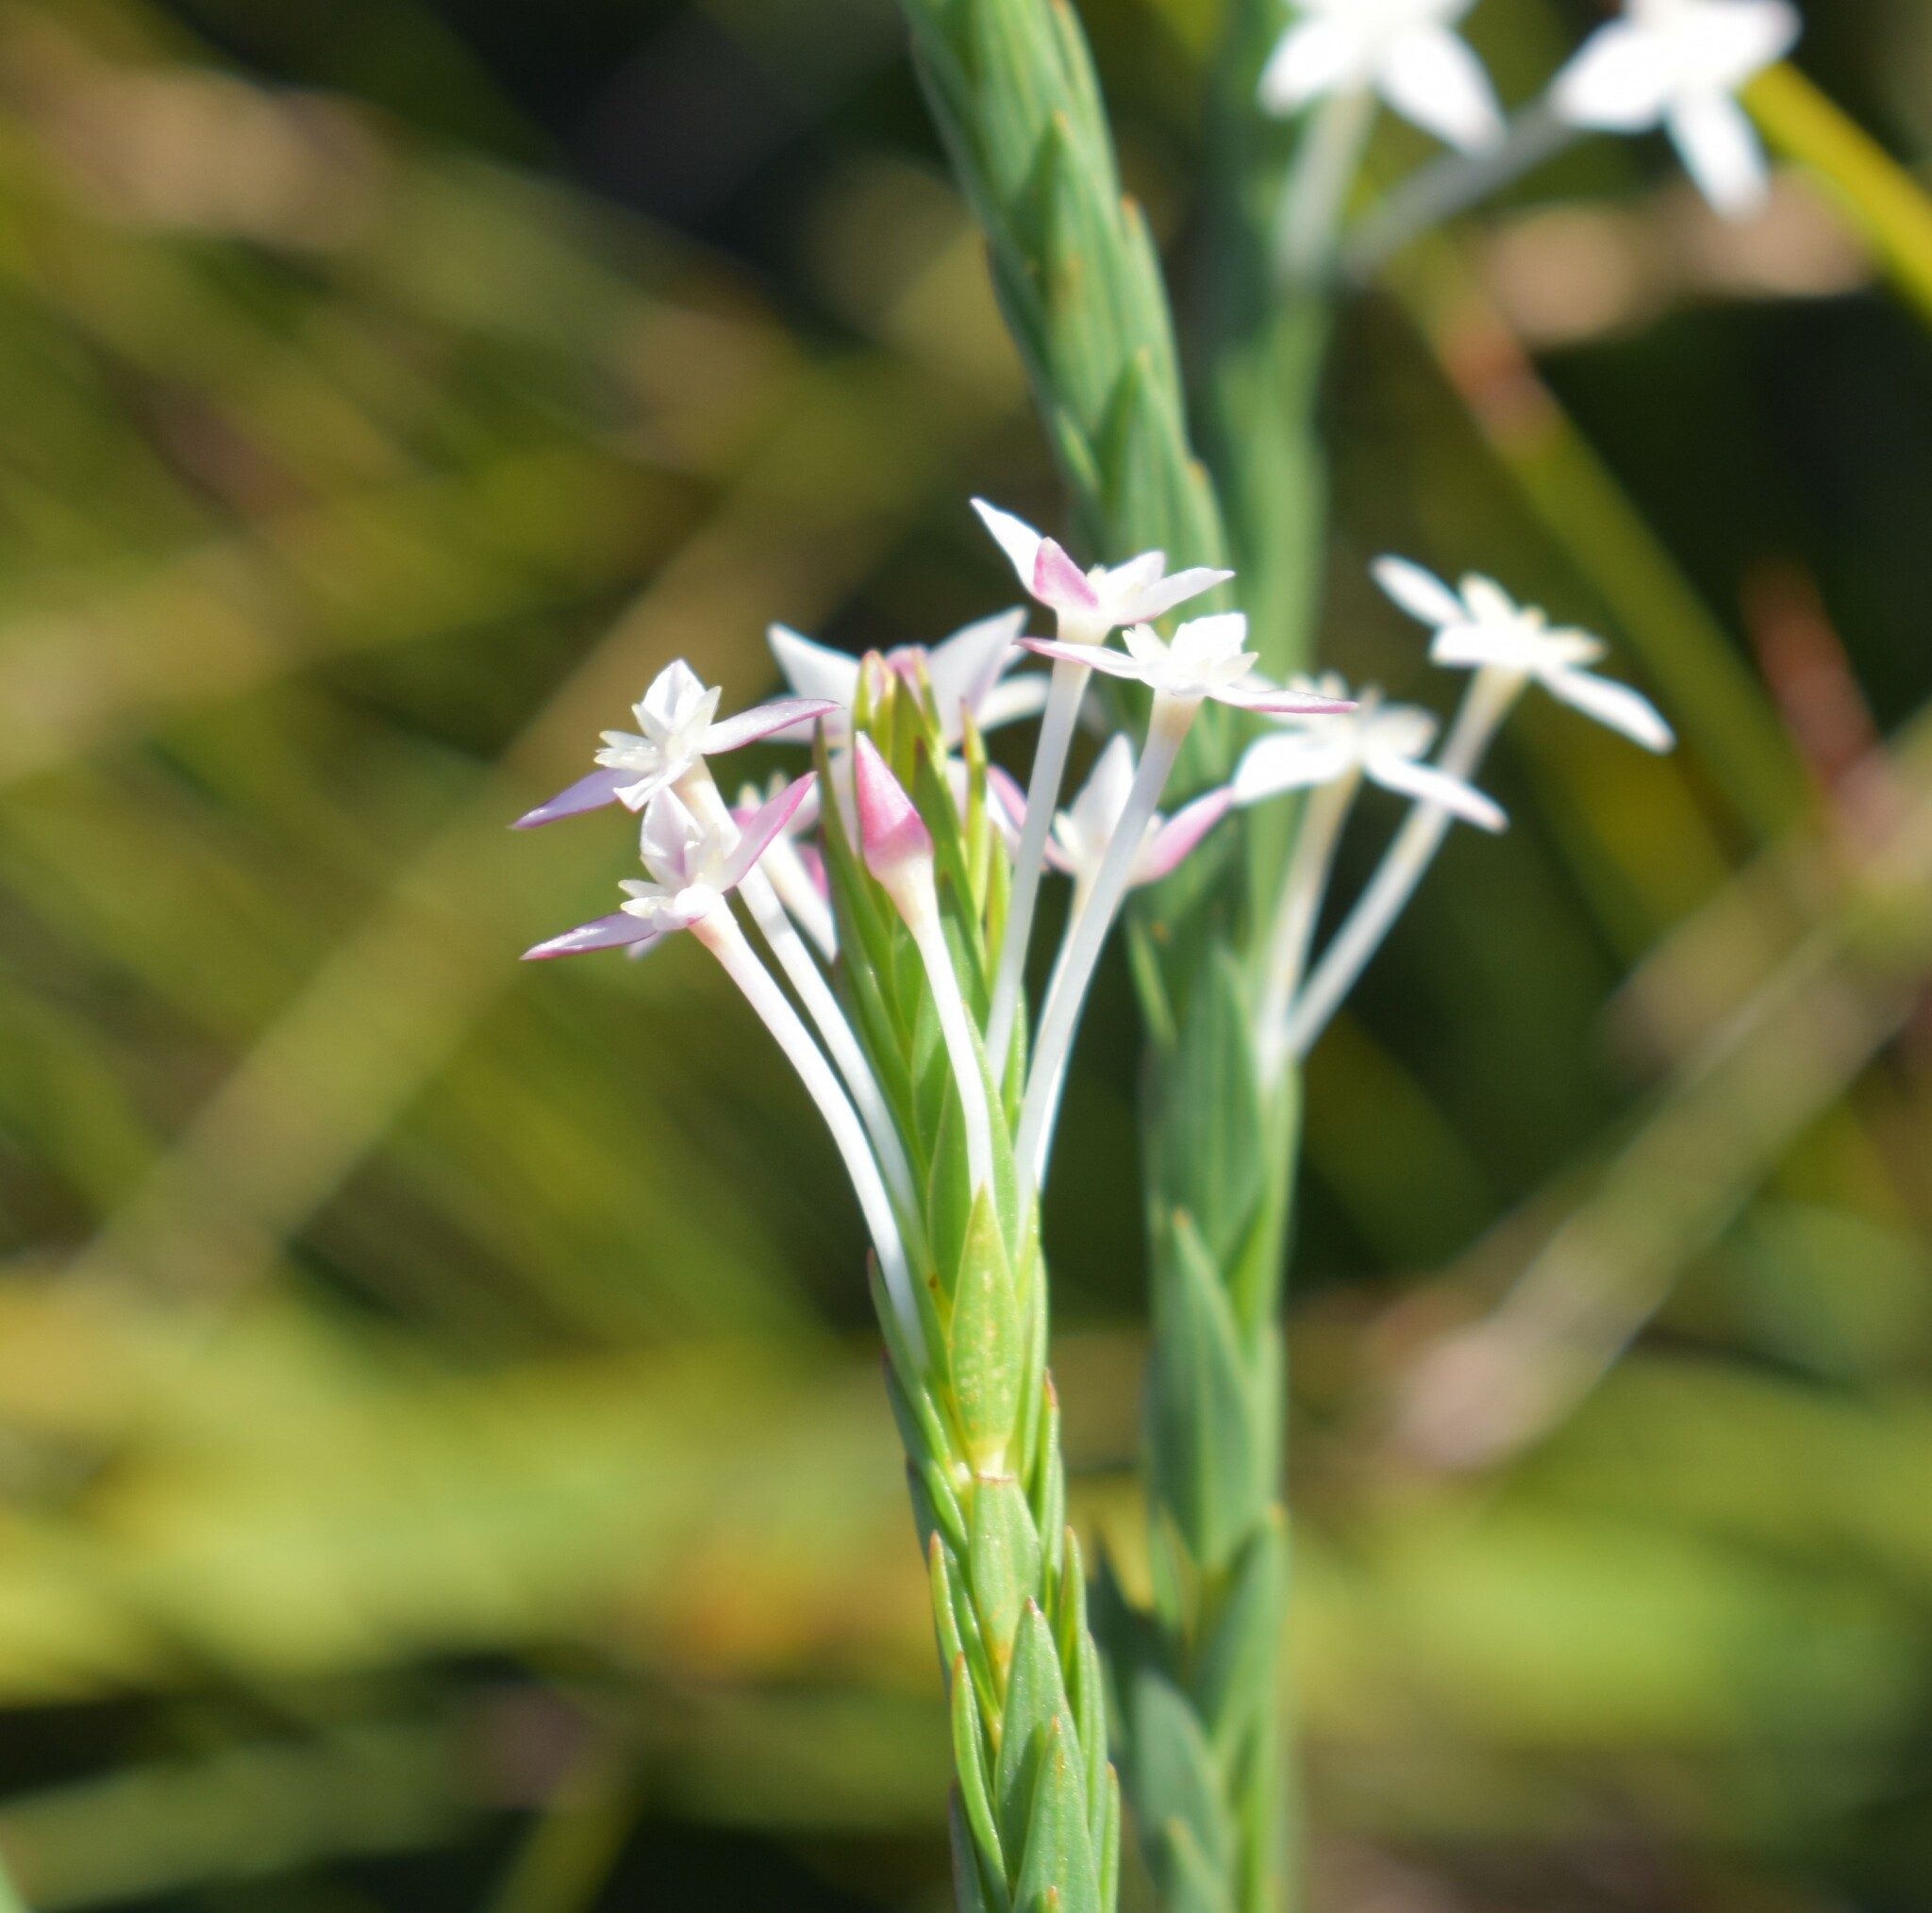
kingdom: Plantae
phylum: Tracheophyta
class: Magnoliopsida
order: Malvales
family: Thymelaeaceae
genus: Struthiola
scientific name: Struthiola myrsinites
